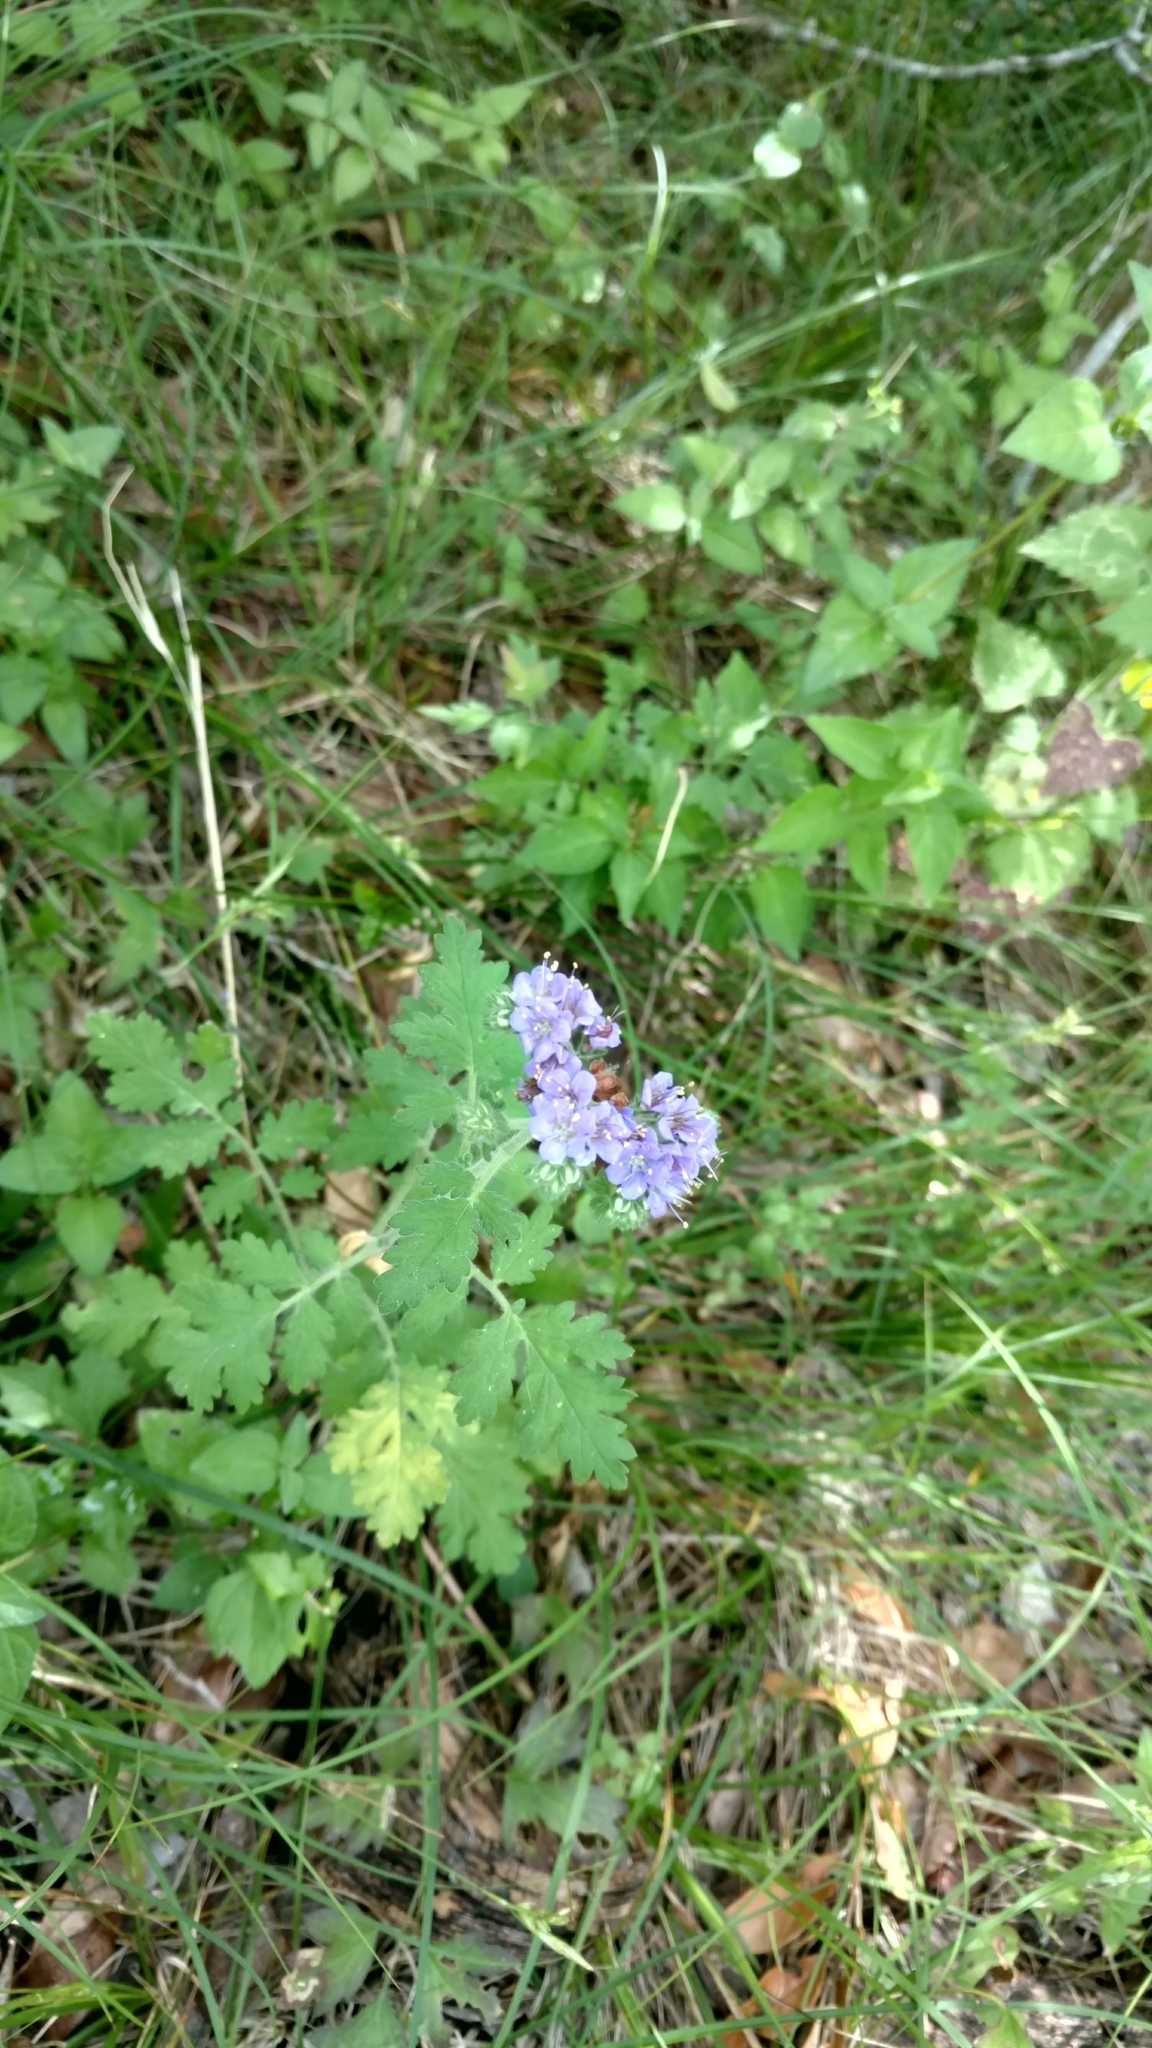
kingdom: Plantae
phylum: Tracheophyta
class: Magnoliopsida
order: Boraginales
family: Hydrophyllaceae
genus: Phacelia
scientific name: Phacelia congesta
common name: Blue curls
